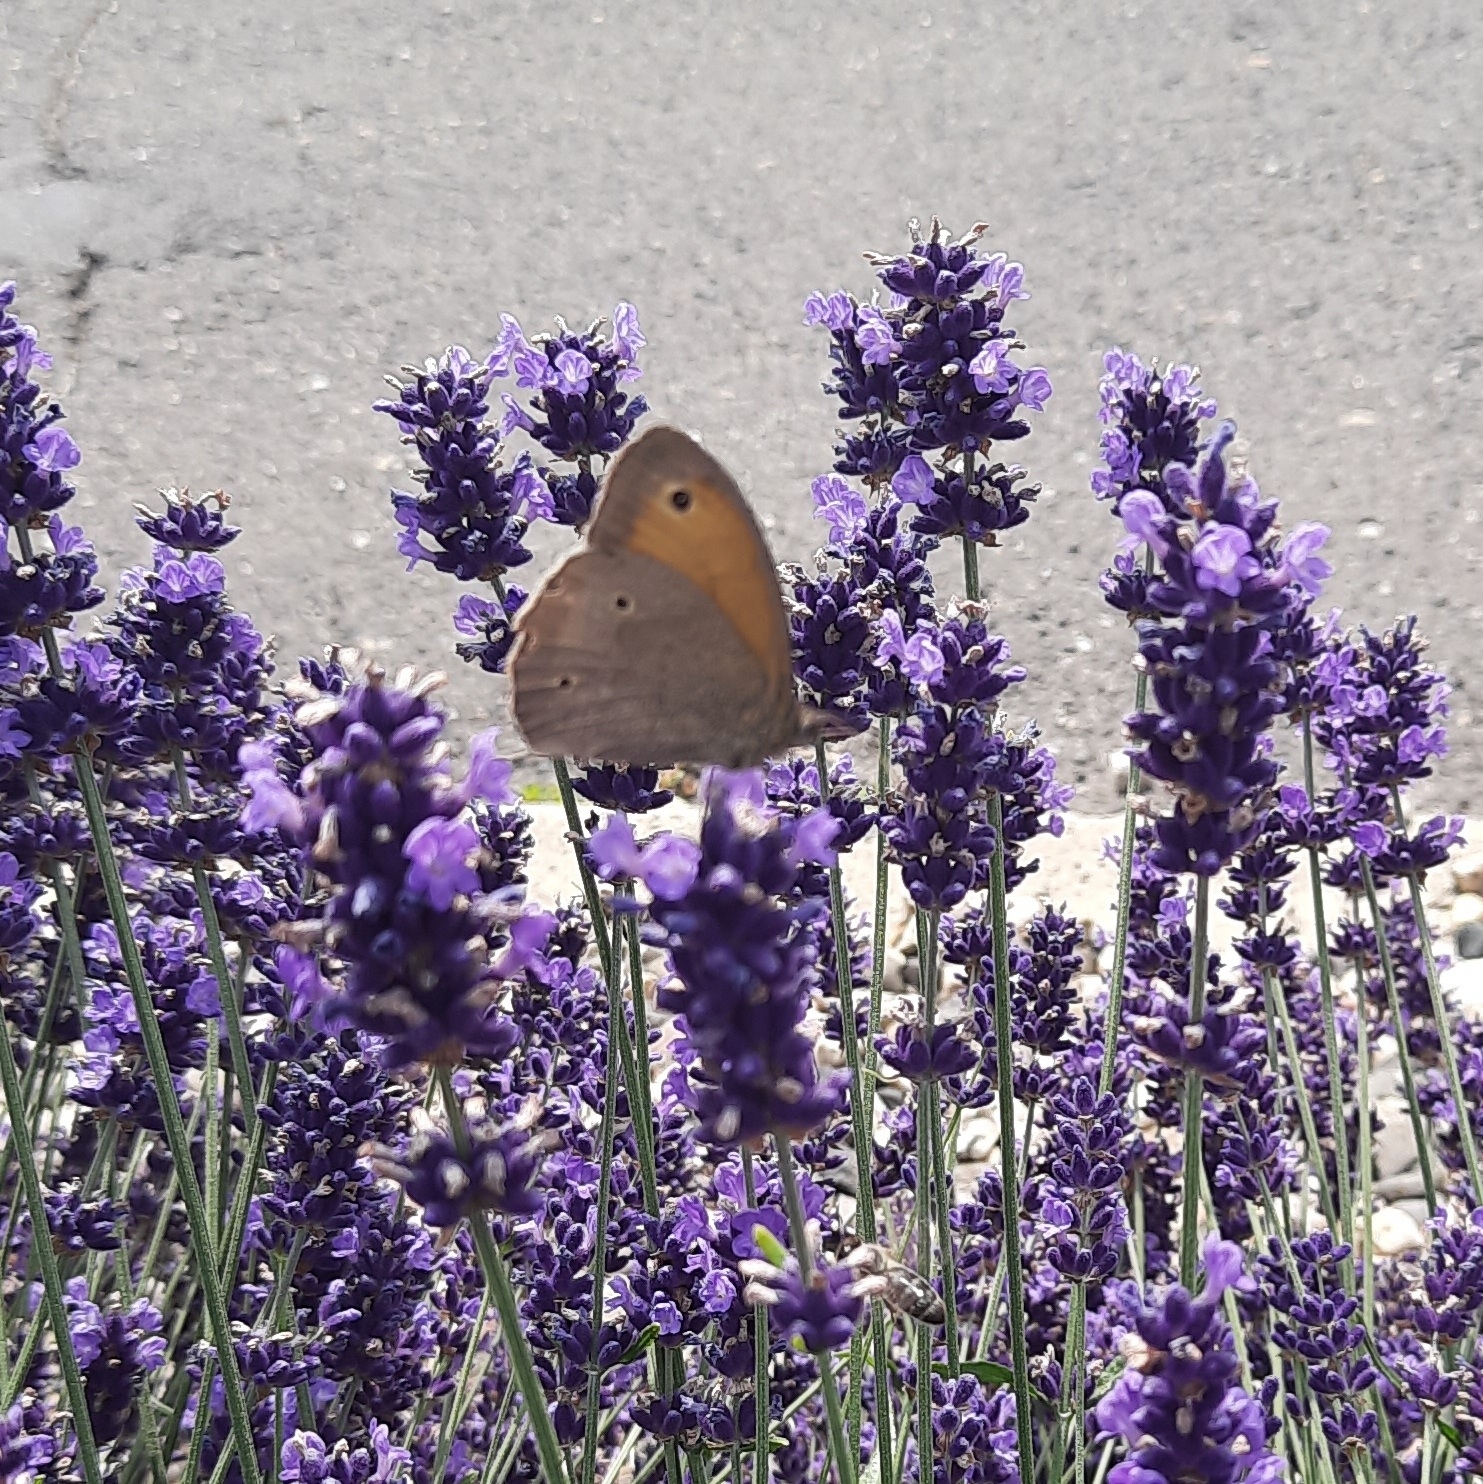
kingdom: Animalia
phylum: Arthropoda
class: Insecta
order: Lepidoptera
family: Nymphalidae
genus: Maniola
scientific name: Maniola jurtina
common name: Meadow brown
